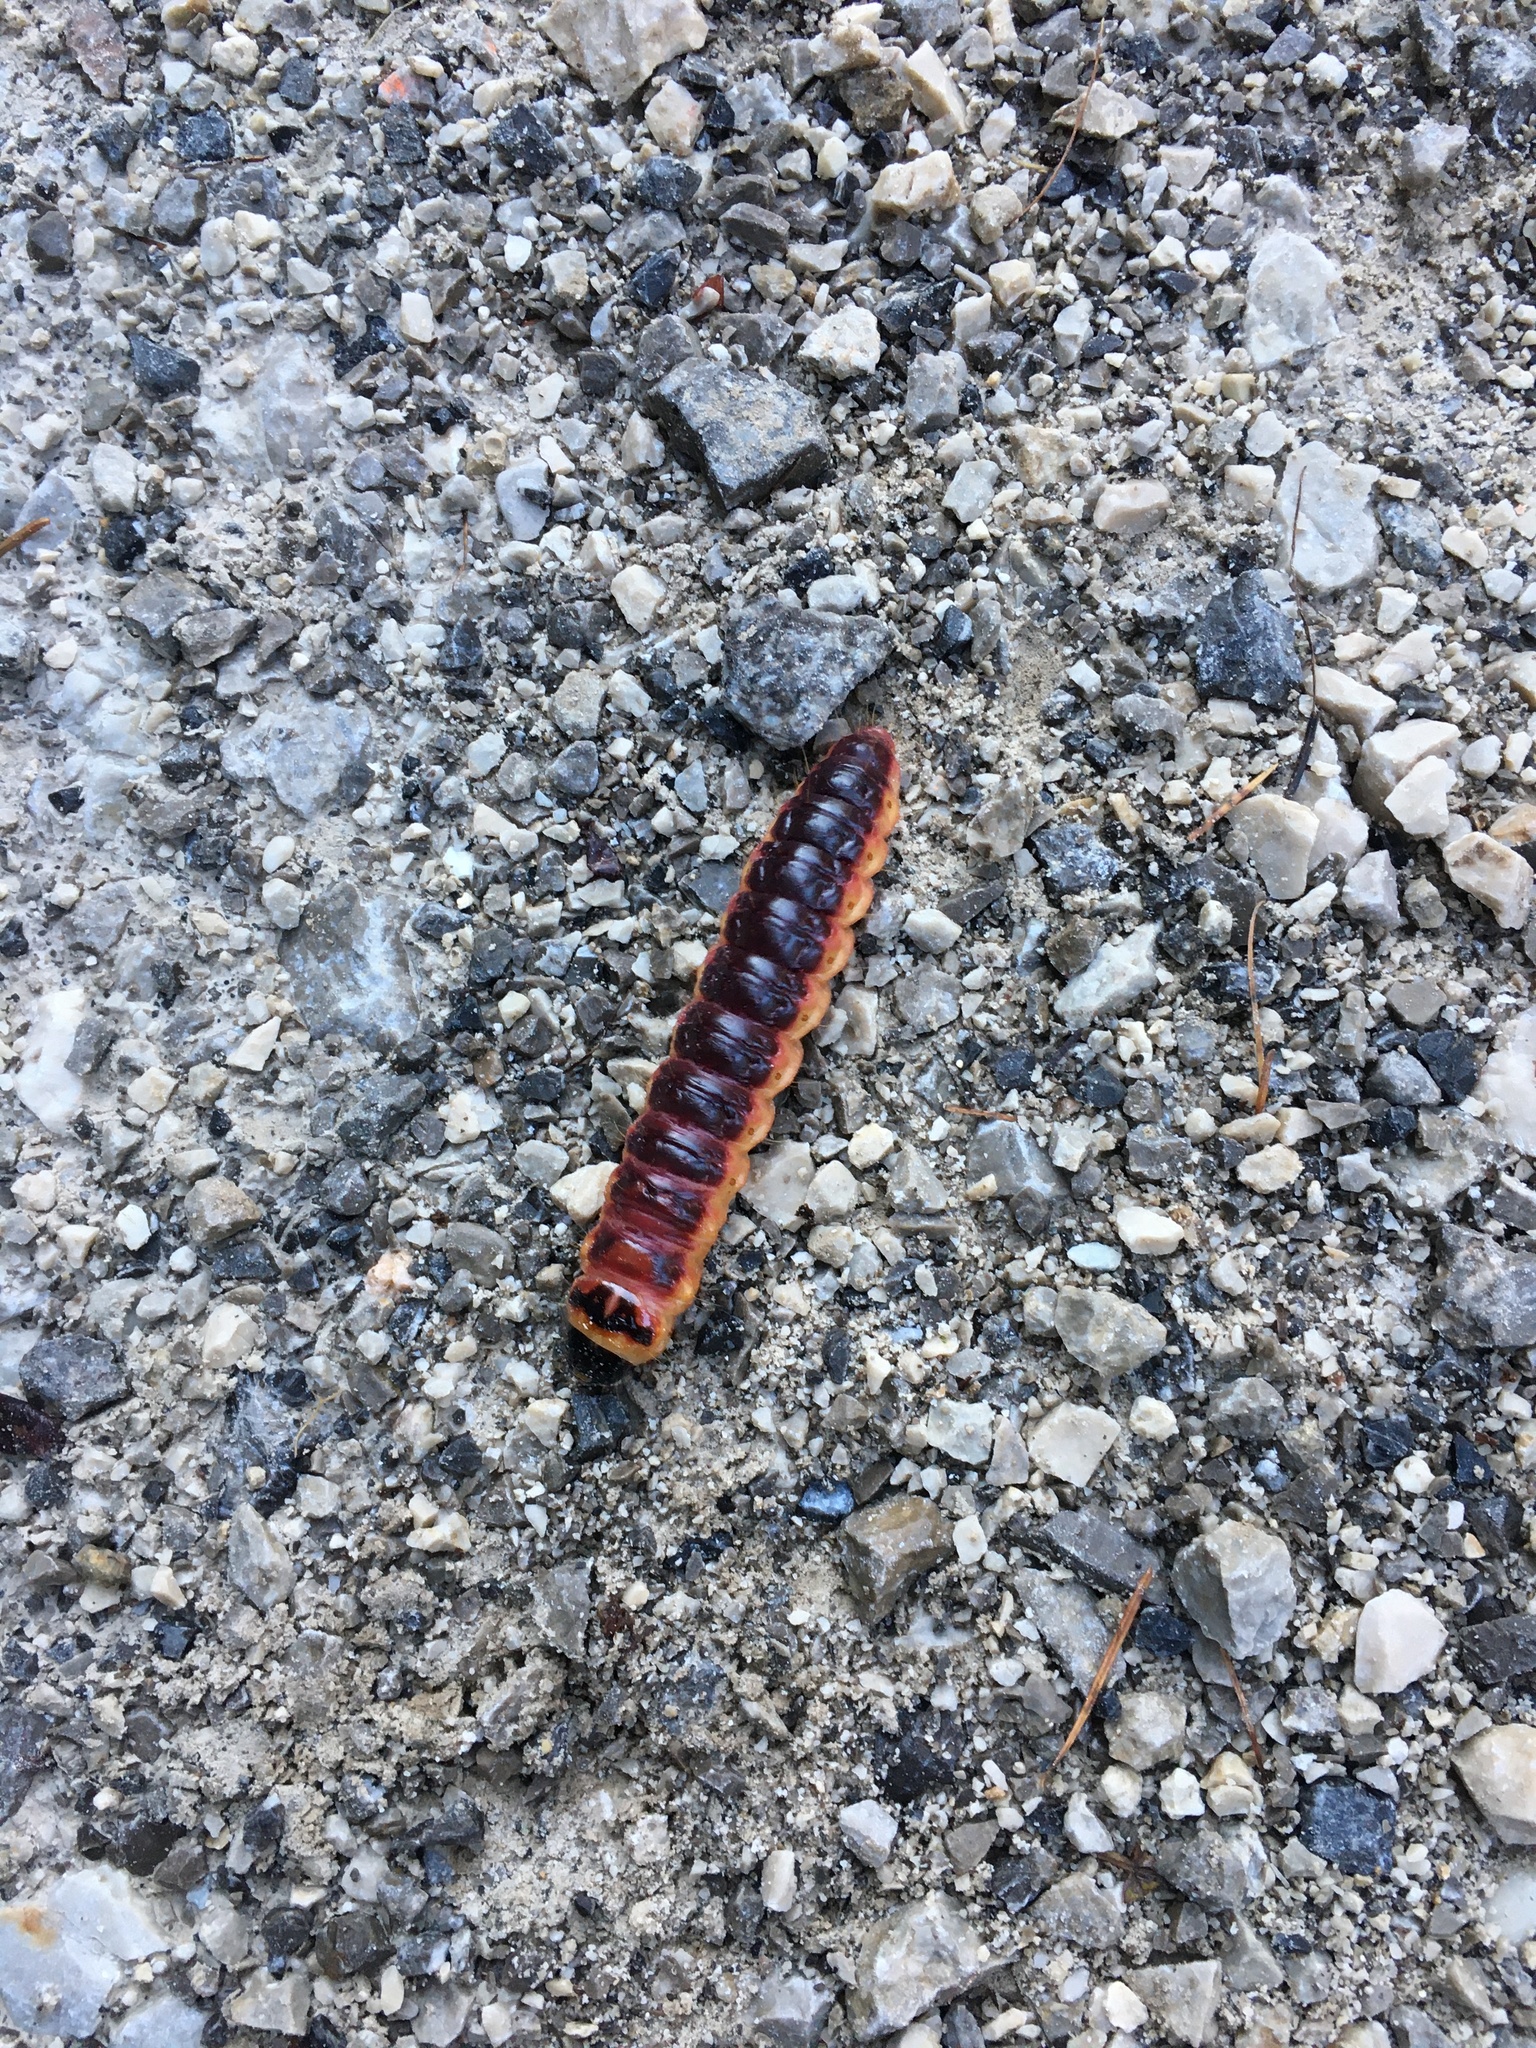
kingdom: Animalia
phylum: Arthropoda
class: Insecta
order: Lepidoptera
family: Cossidae
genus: Cossus
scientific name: Cossus cossus
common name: Goat moth
